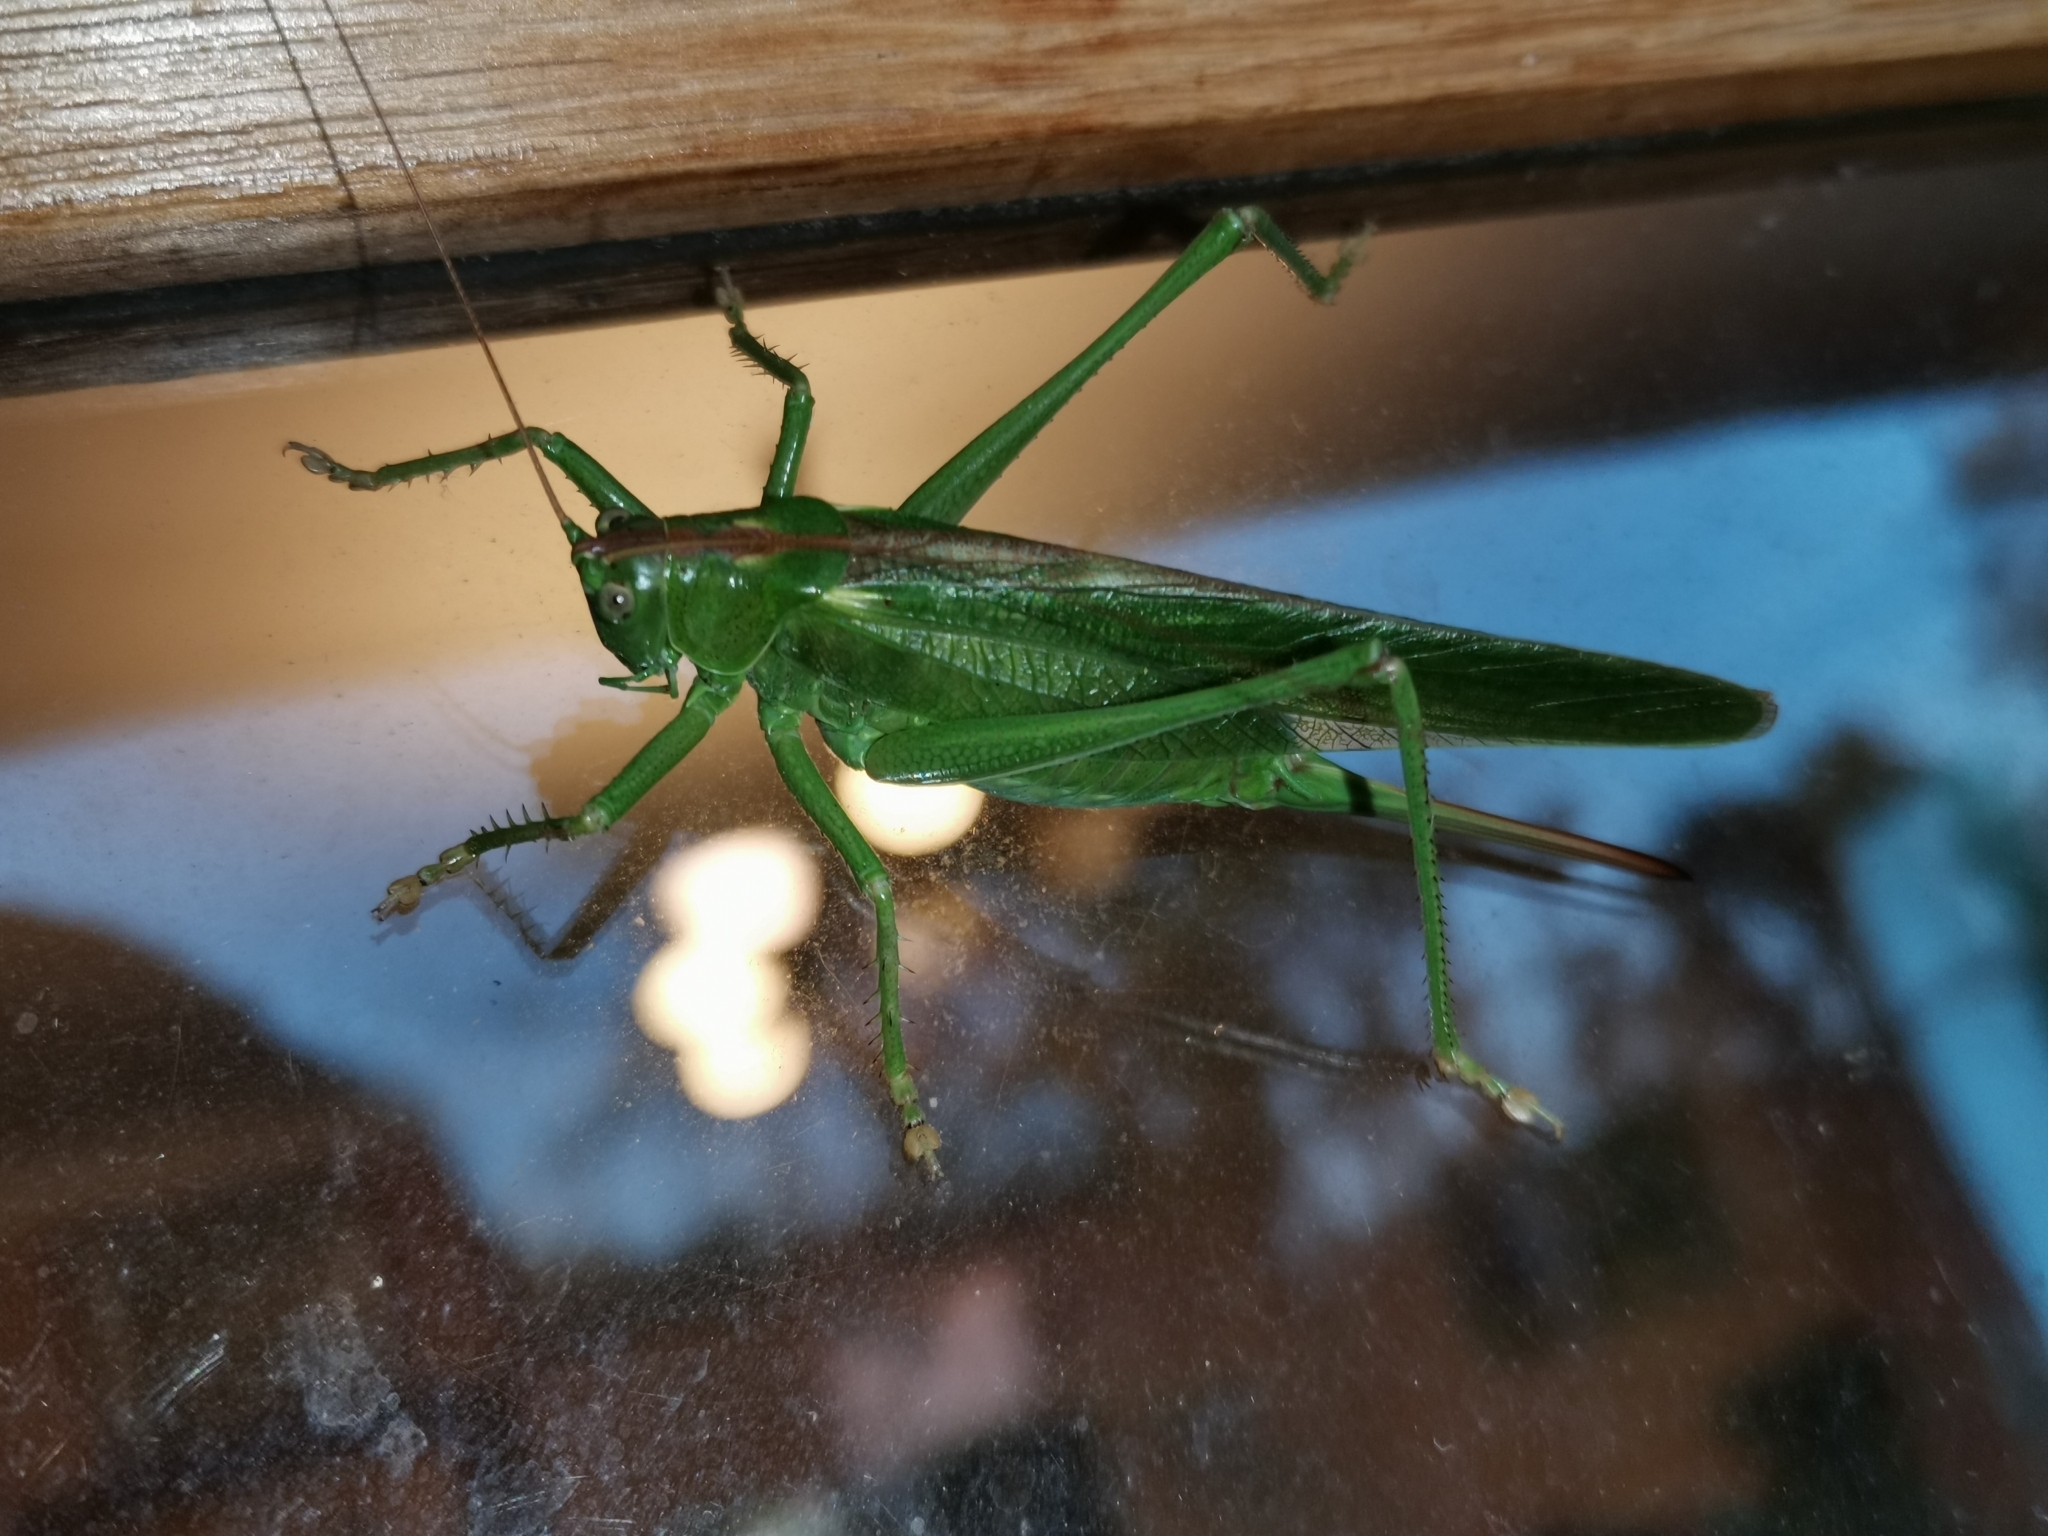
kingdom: Animalia
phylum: Arthropoda
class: Insecta
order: Orthoptera
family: Tettigoniidae
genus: Tettigonia
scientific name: Tettigonia viridissima
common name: Great green bush-cricket
